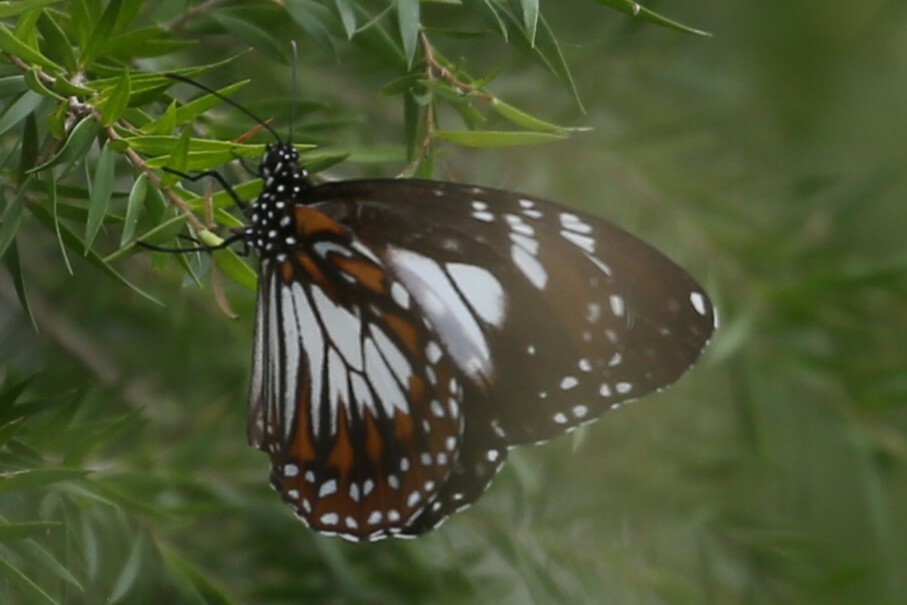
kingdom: Animalia
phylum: Arthropoda
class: Insecta
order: Lepidoptera
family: Nymphalidae
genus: Danaus
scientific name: Danaus affinis
